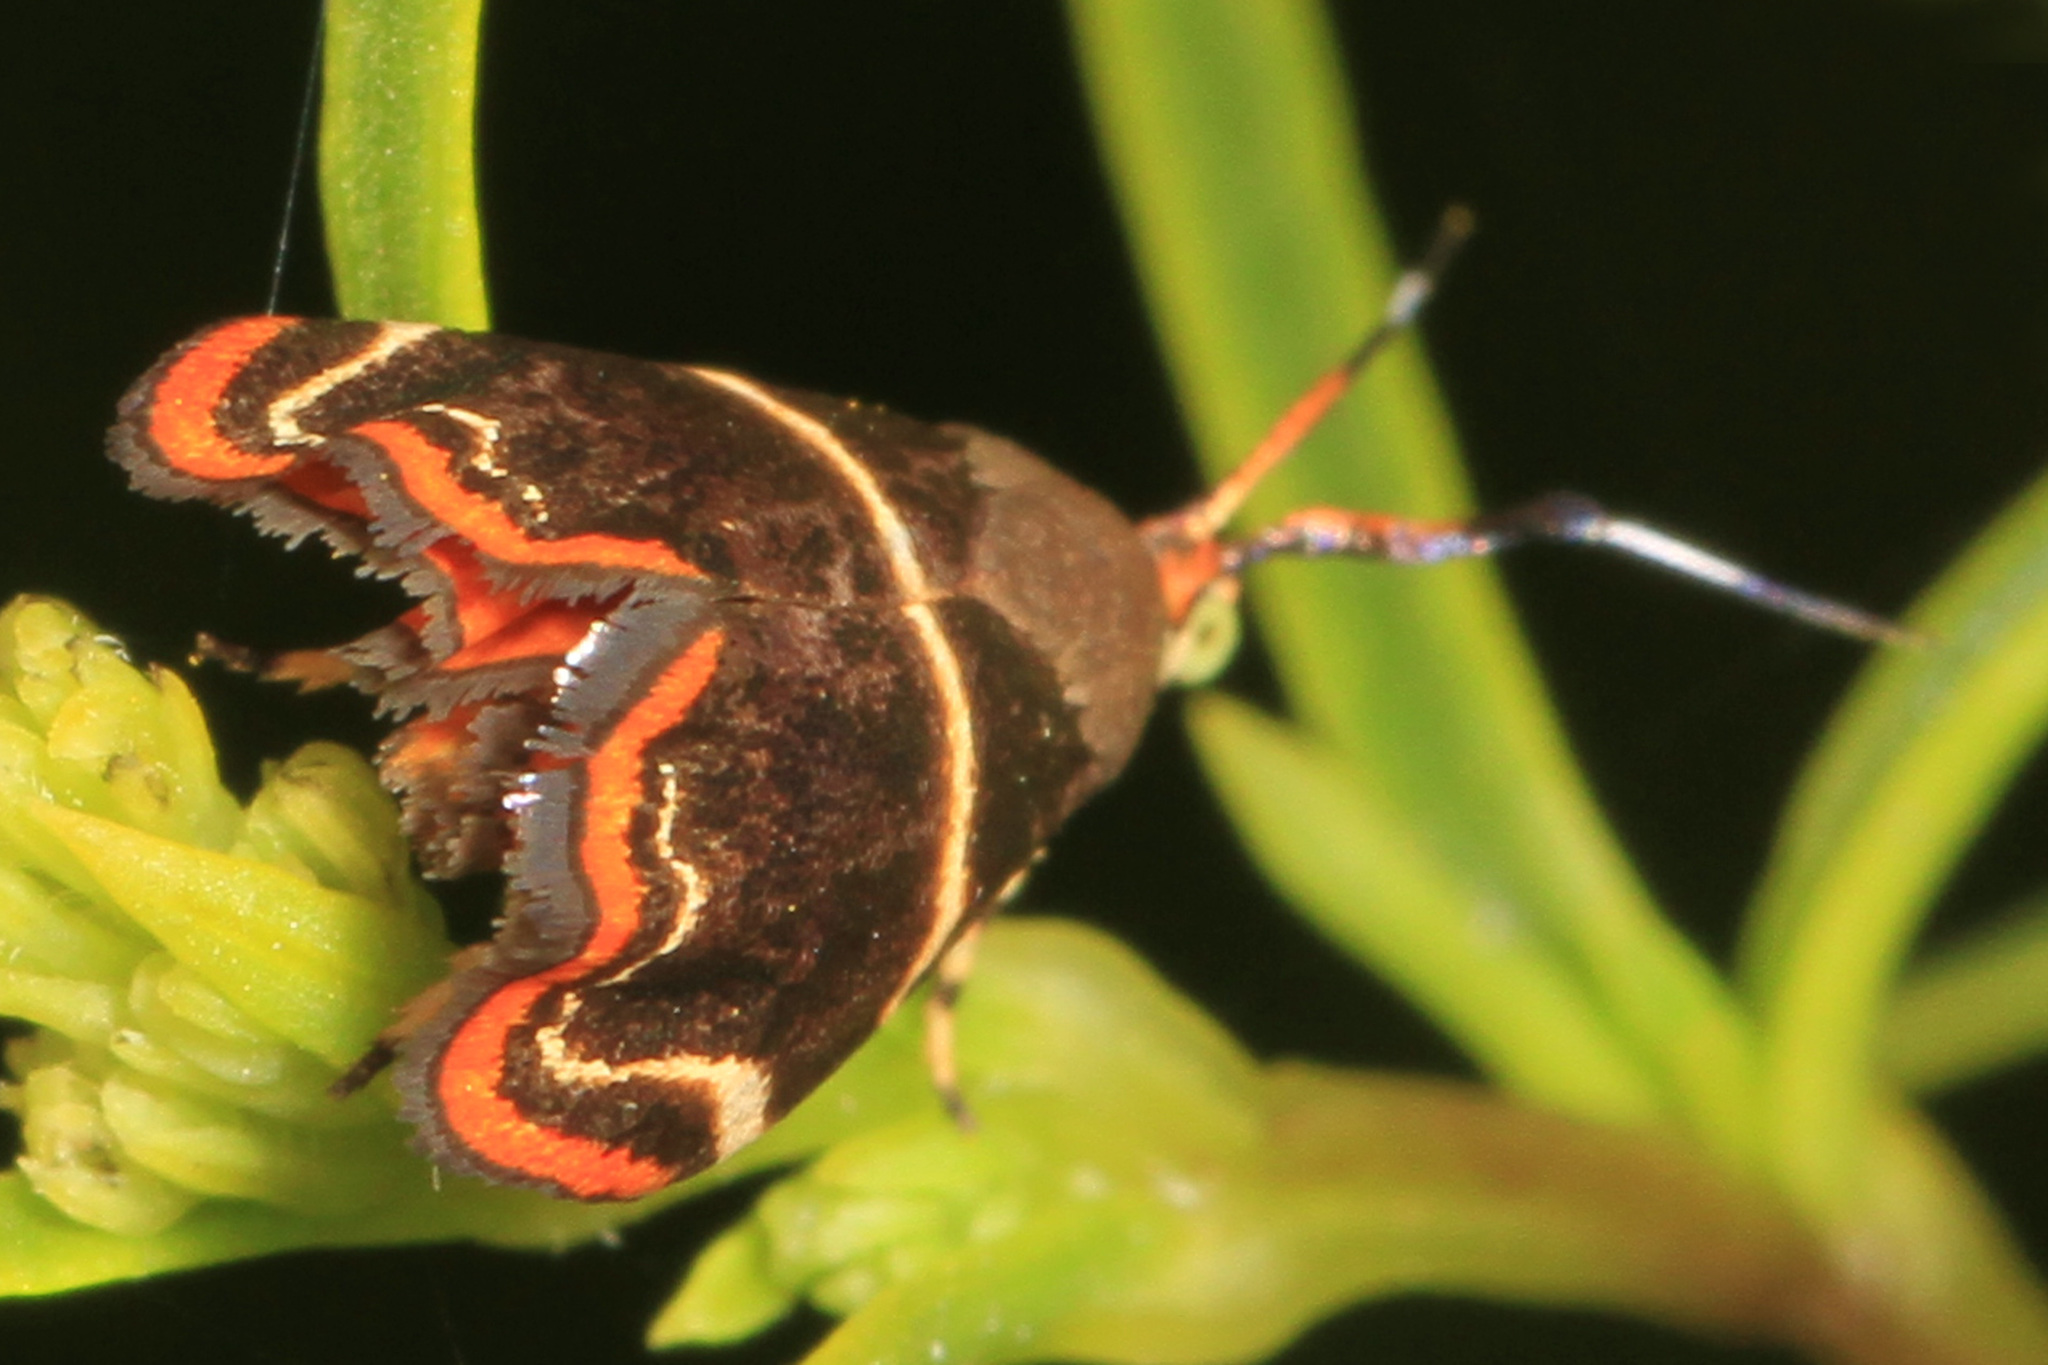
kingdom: Animalia
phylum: Arthropoda
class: Insecta
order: Lepidoptera
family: Choreutidae
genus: Hemerophila
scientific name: Hemerophila
